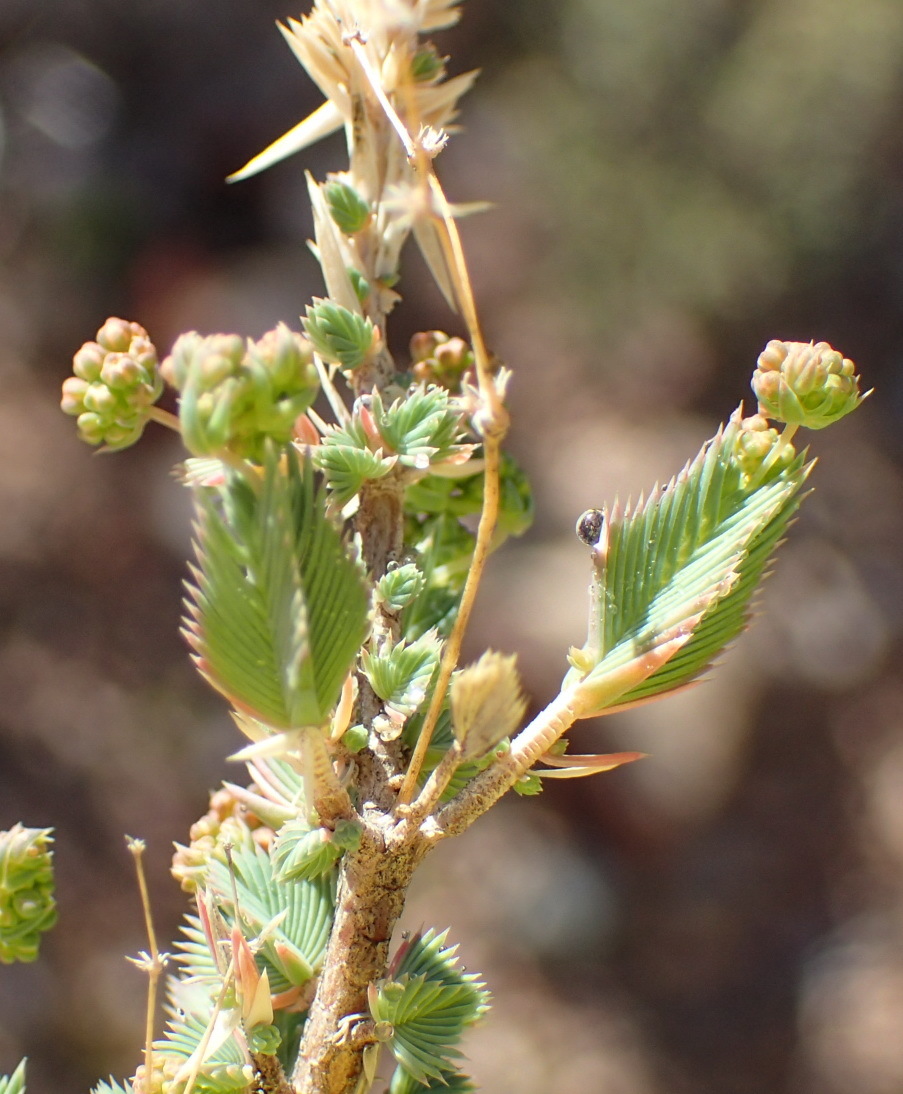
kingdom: Plantae
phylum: Tracheophyta
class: Magnoliopsida
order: Caryophyllales
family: Molluginaceae
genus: Psammotropha
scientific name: Psammotropha quadrangularis
